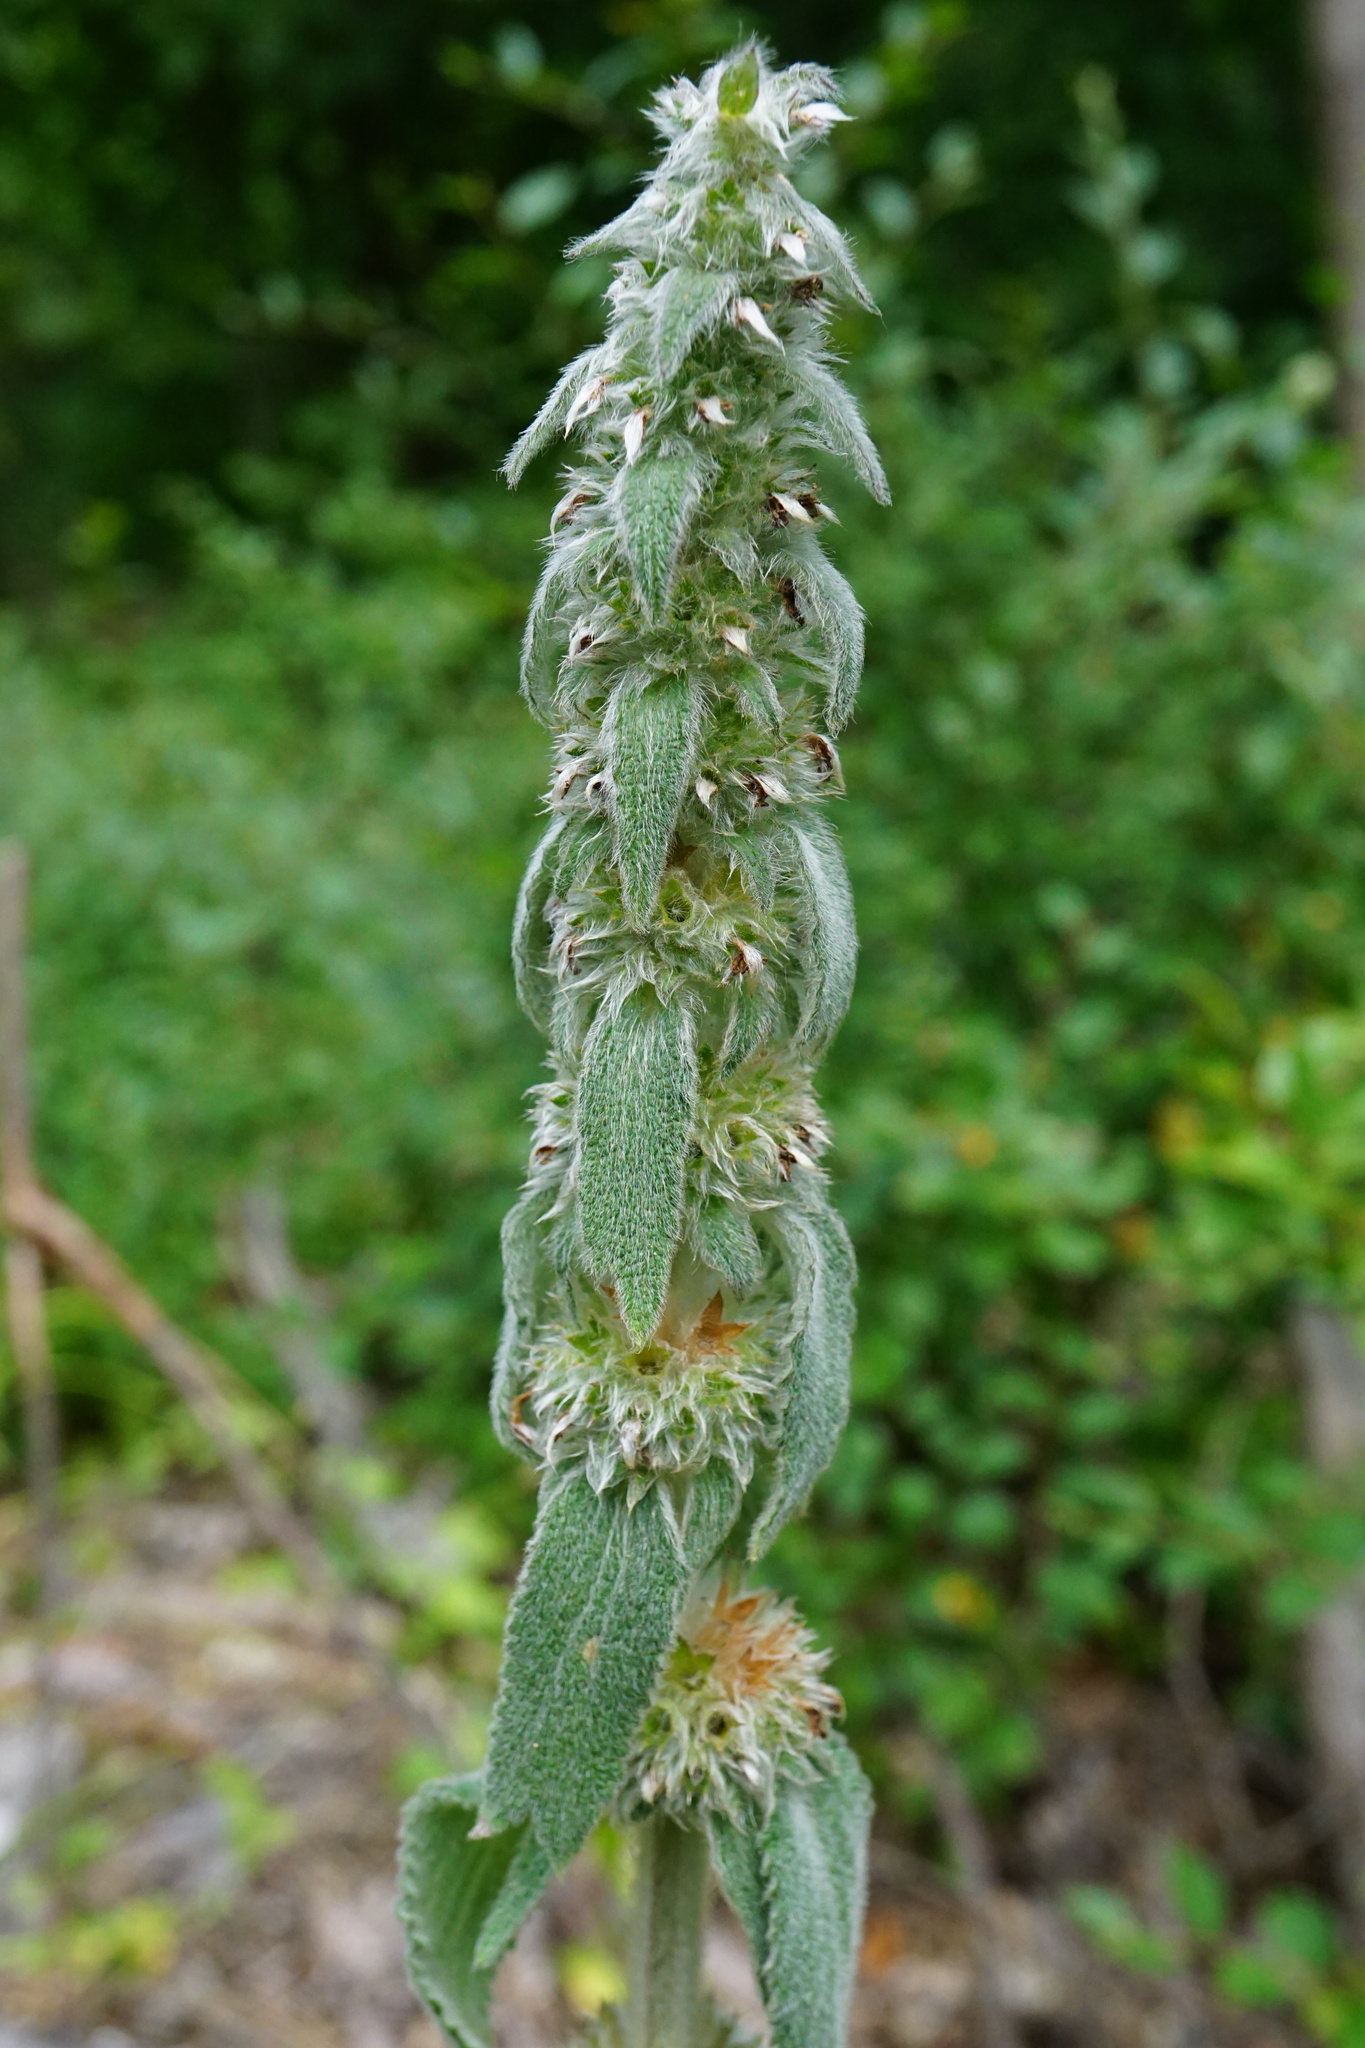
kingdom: Plantae
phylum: Tracheophyta
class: Magnoliopsida
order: Lamiales
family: Lamiaceae
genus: Stachys
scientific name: Stachys germanica
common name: Downy woundwort
